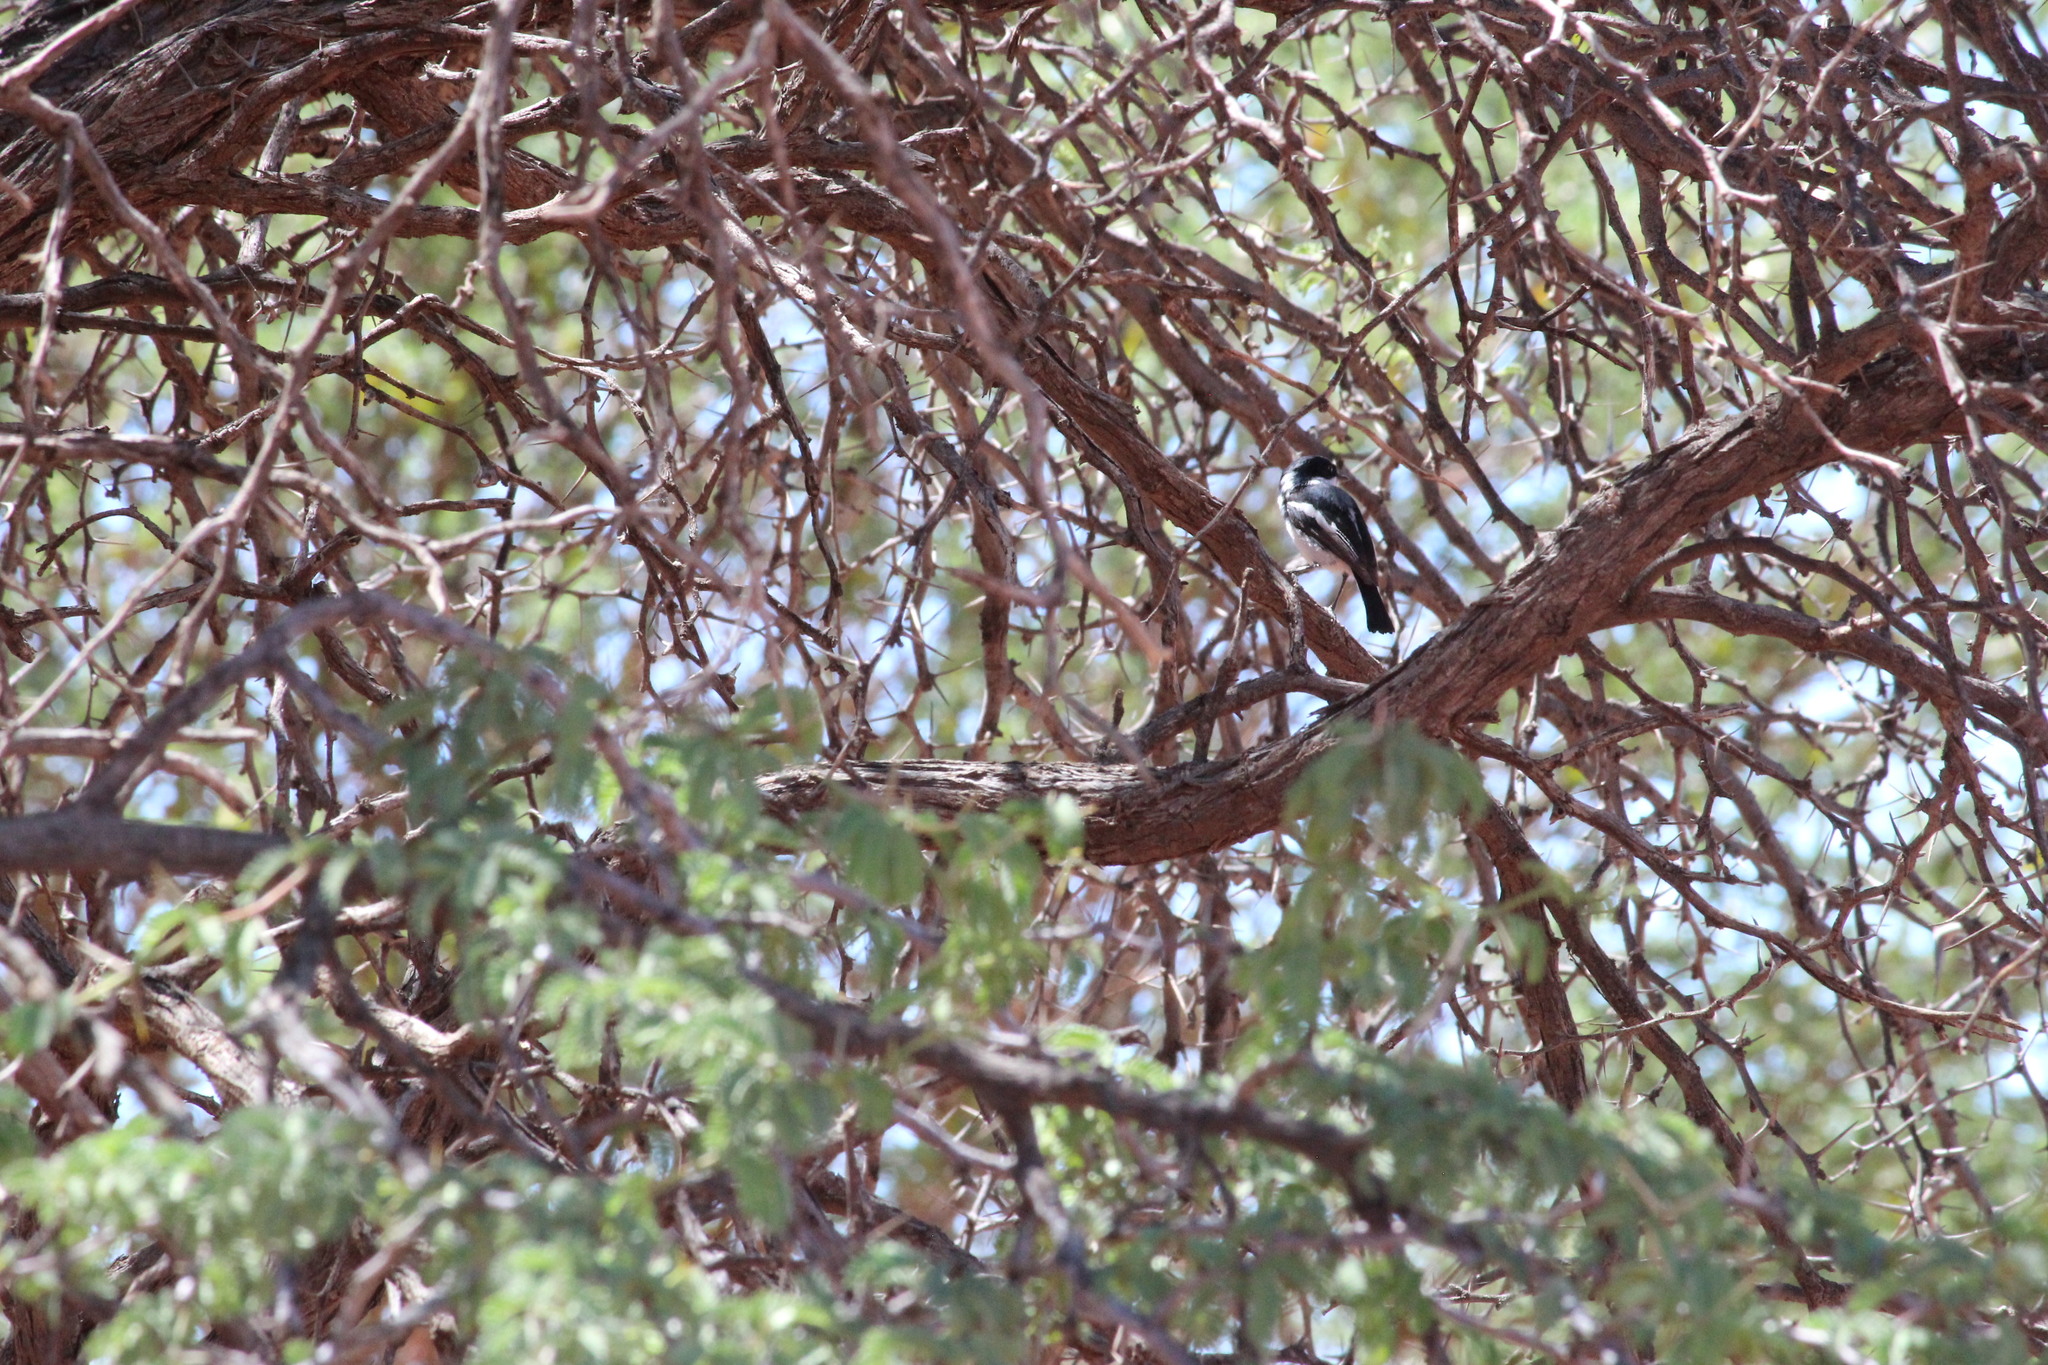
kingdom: Animalia
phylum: Chordata
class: Aves
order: Passeriformes
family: Platysteiridae
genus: Batis
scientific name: Batis pririt
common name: Pririt batis
